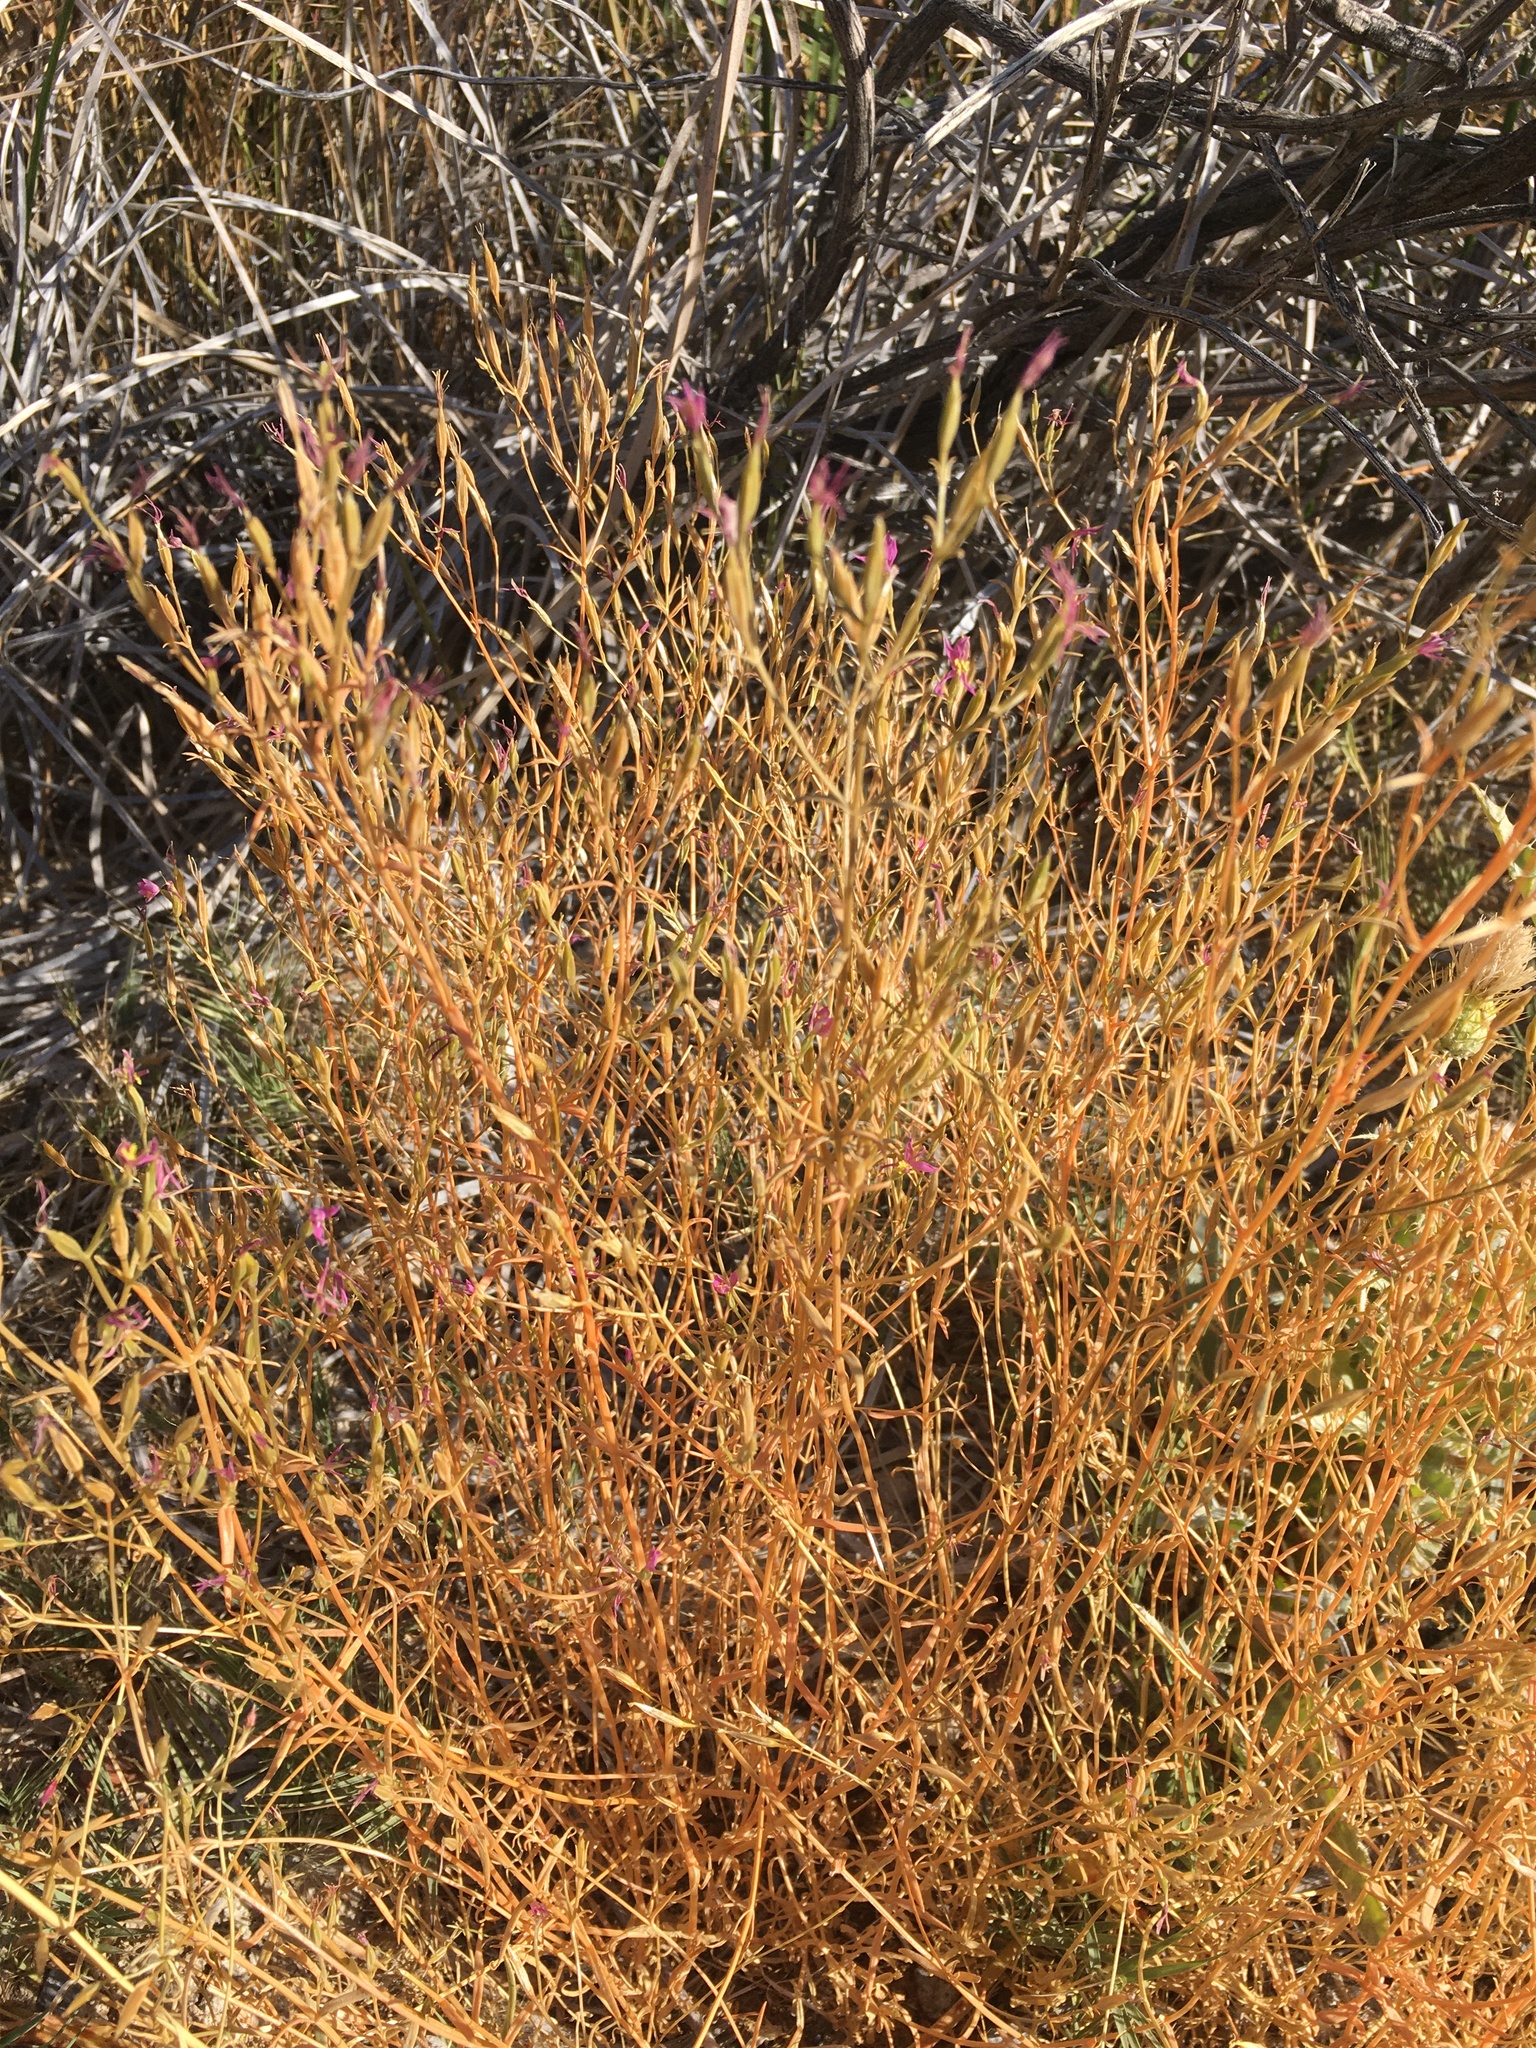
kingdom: Plantae
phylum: Tracheophyta
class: Magnoliopsida
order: Gentianales
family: Gentianaceae
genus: Zeltnera
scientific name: Zeltnera namatophila
